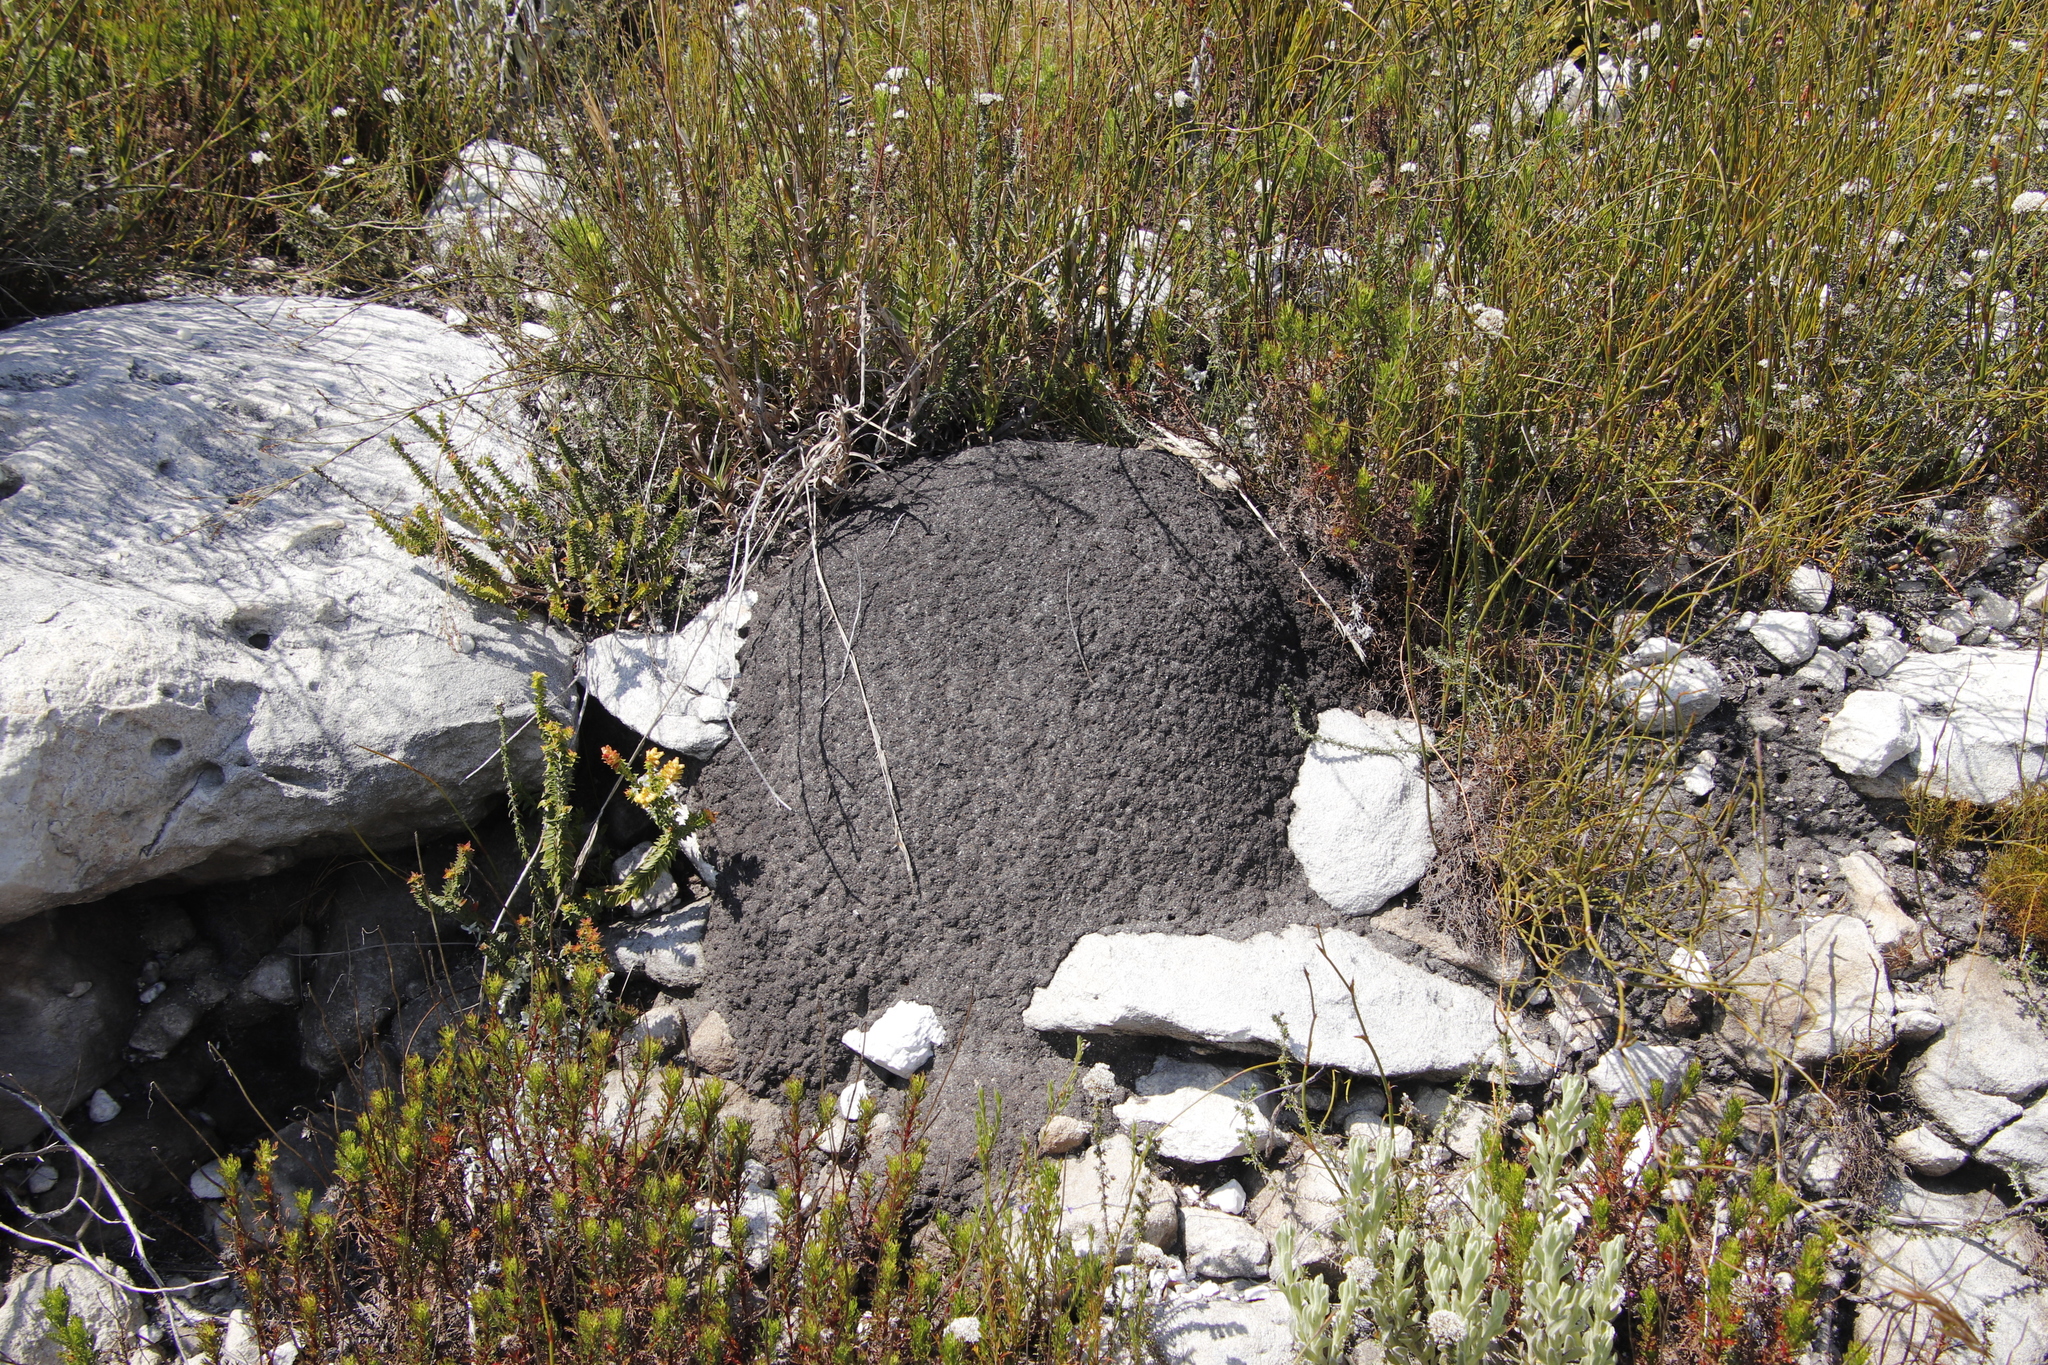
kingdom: Animalia
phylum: Arthropoda
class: Insecta
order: Blattodea
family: Termitidae
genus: Amitermes
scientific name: Amitermes hastatus
